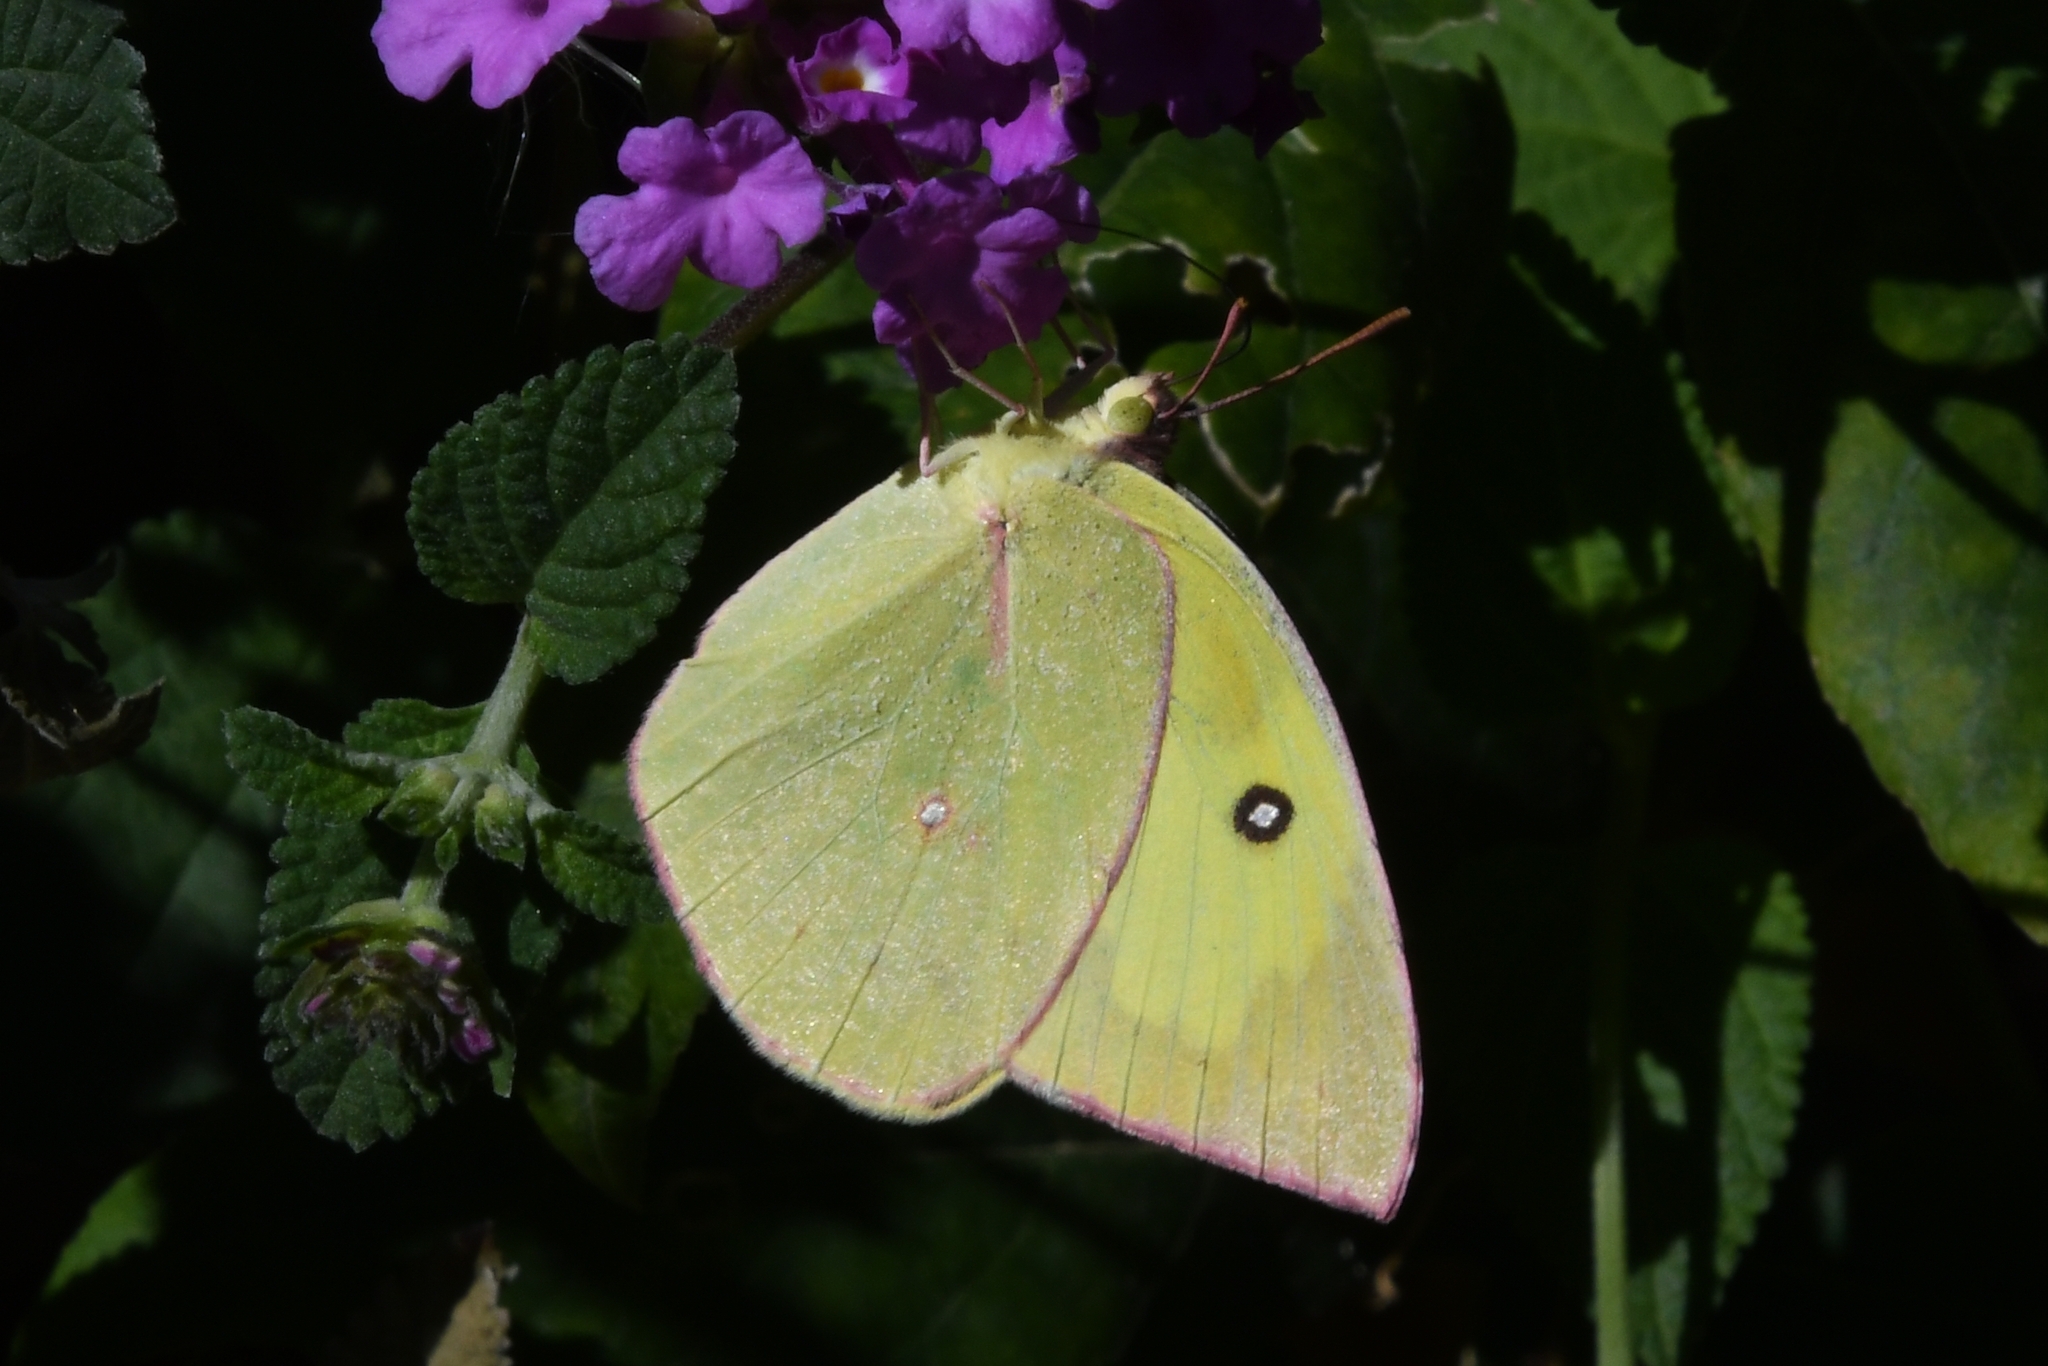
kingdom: Animalia
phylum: Arthropoda
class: Insecta
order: Lepidoptera
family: Pieridae
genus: Zerene
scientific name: Zerene cesonia
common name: Southern dogface
